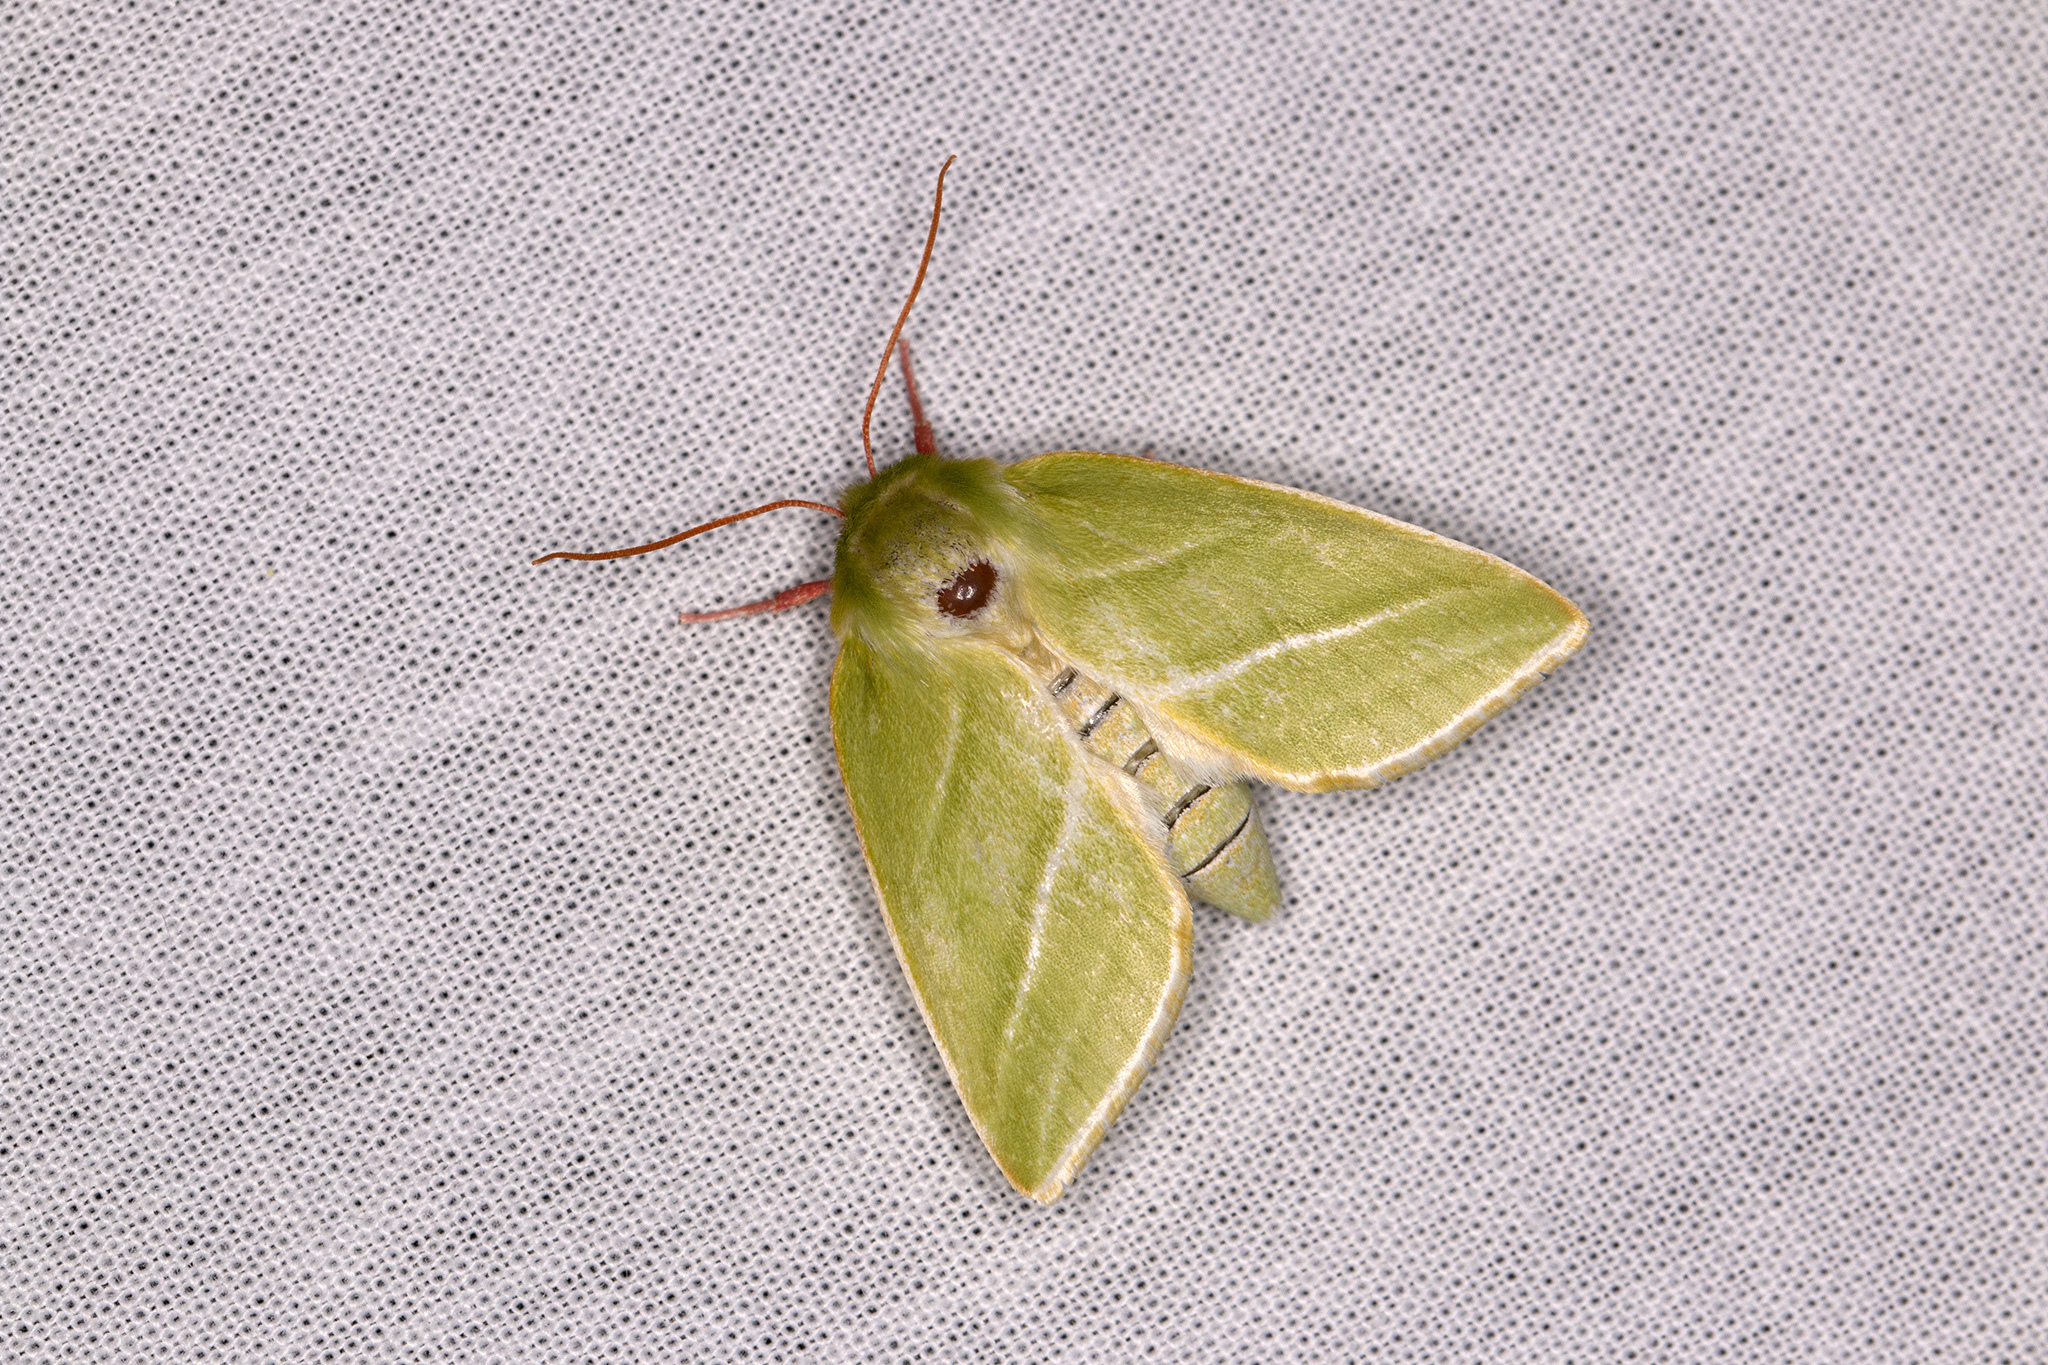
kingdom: Animalia
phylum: Arthropoda
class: Insecta
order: Lepidoptera
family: Nolidae
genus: Pseudoips
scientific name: Pseudoips prasinana
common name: Green silver-lines
